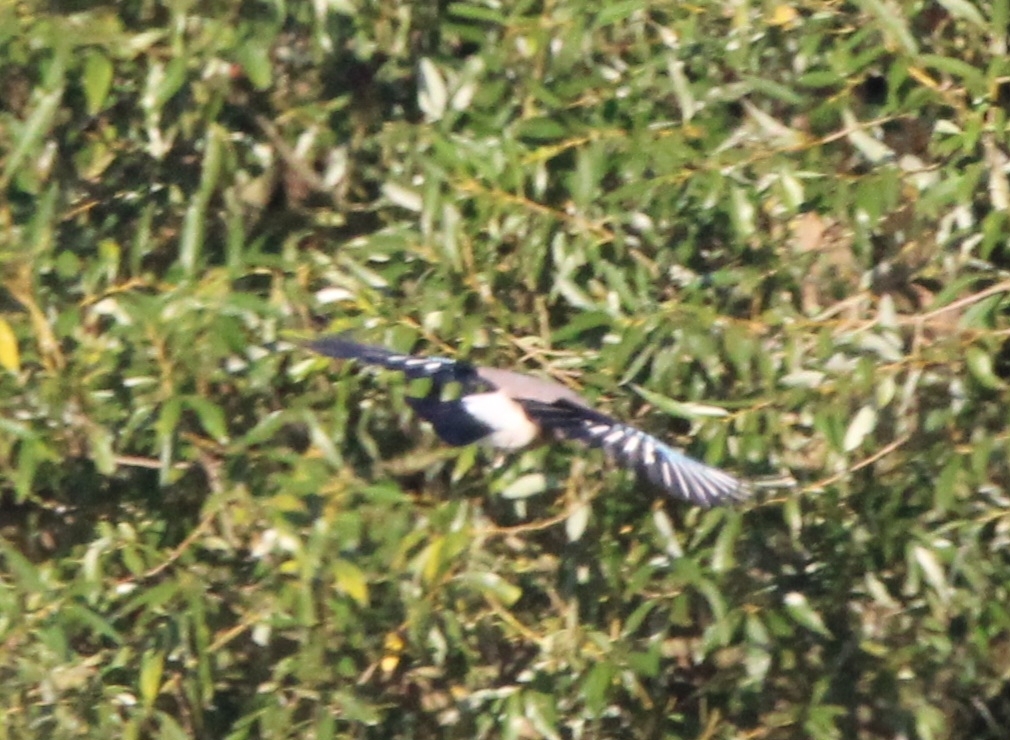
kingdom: Animalia
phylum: Chordata
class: Aves
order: Passeriformes
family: Corvidae
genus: Garrulus
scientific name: Garrulus glandarius
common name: Eurasian jay
